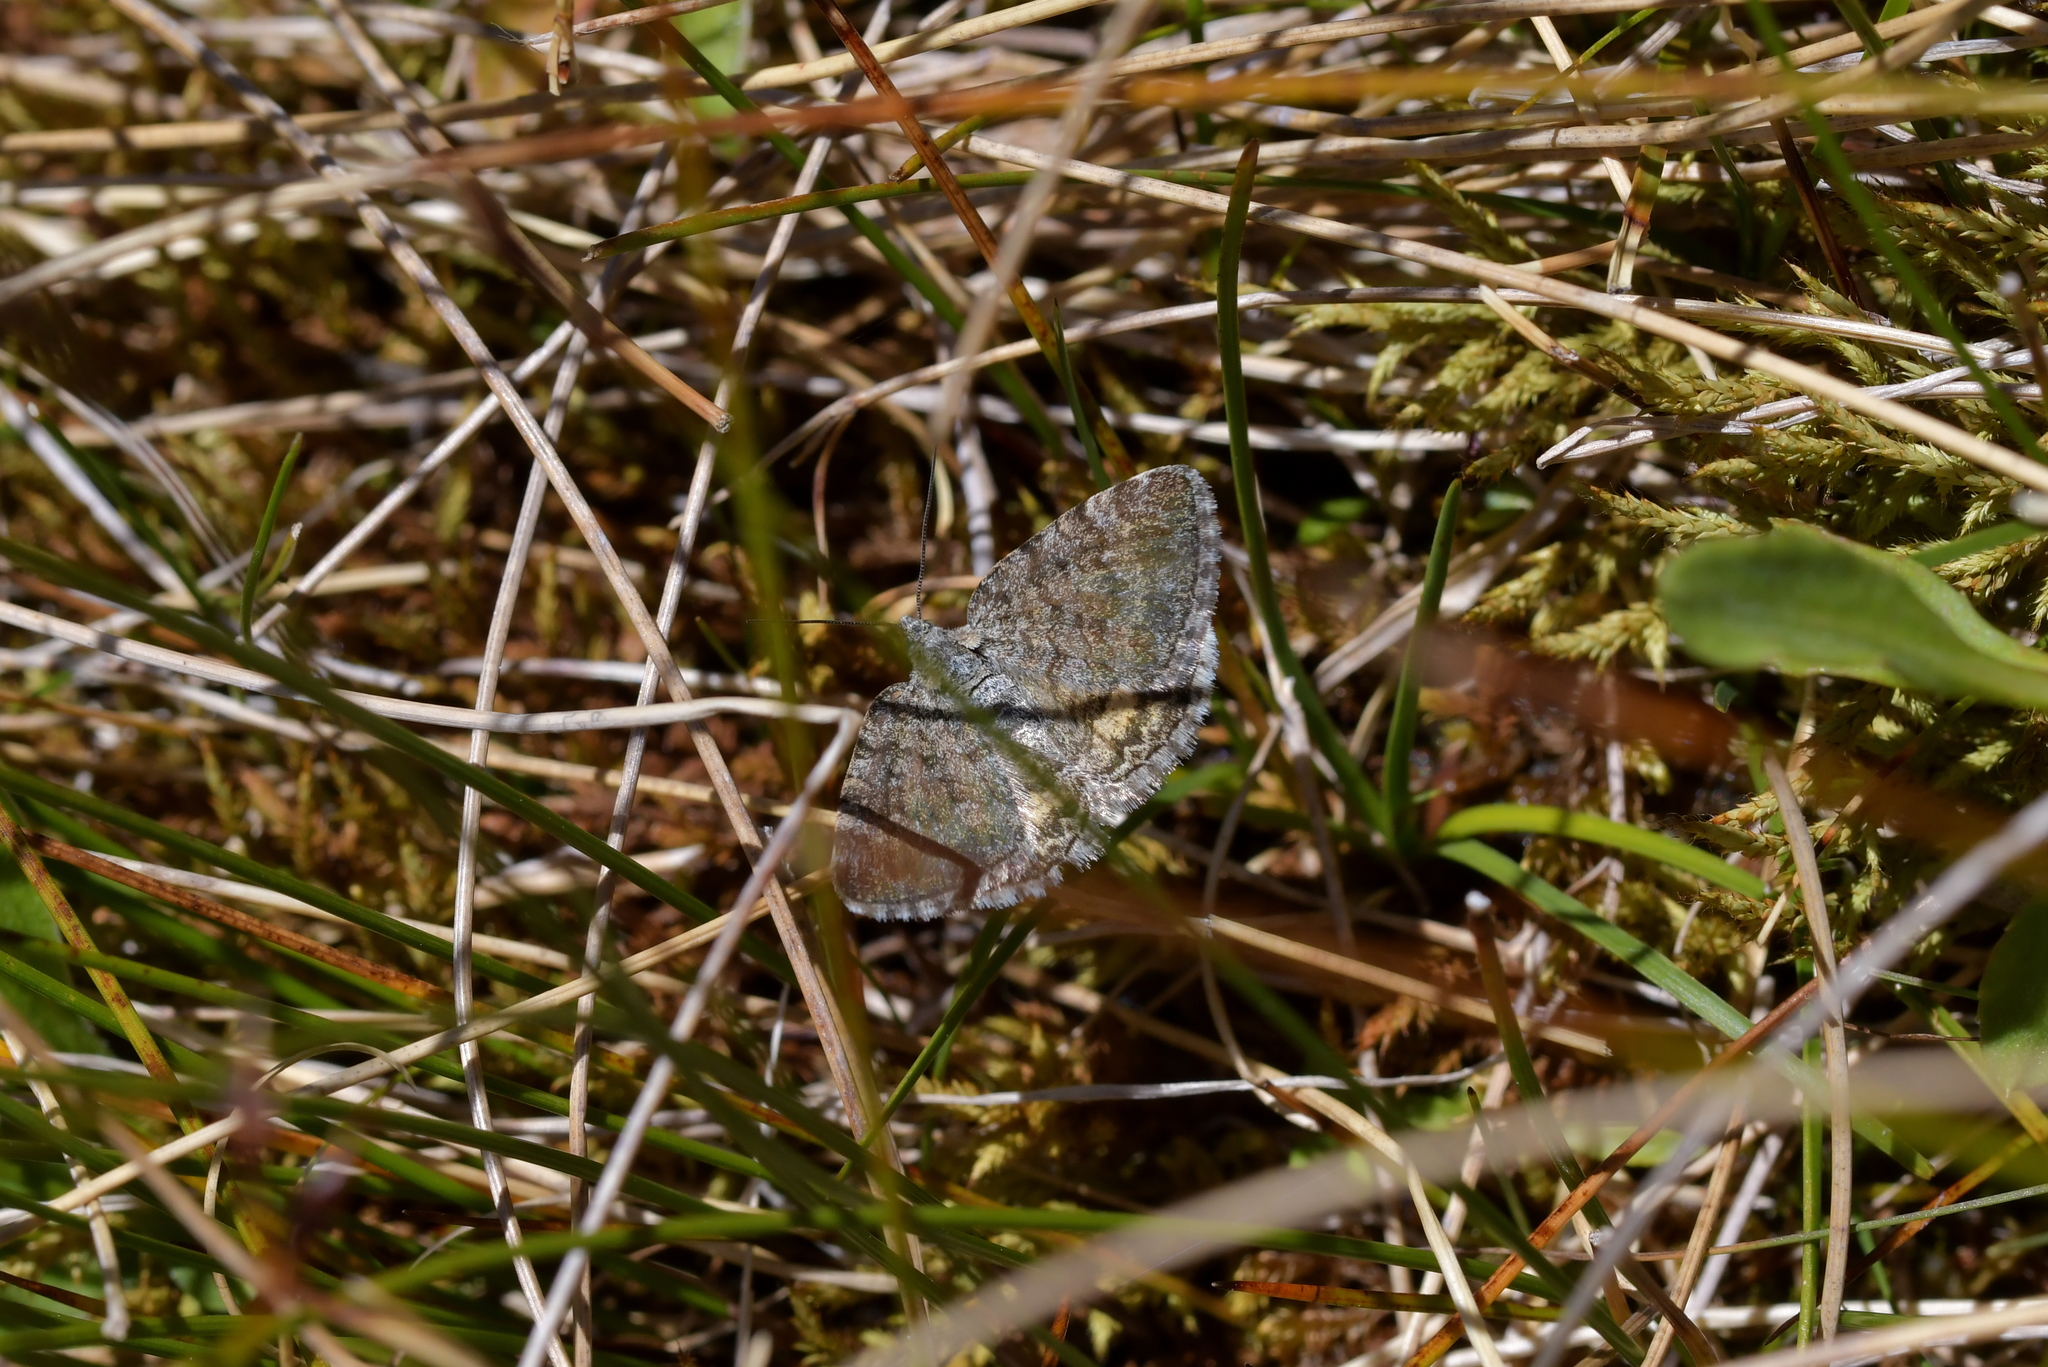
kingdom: Animalia
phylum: Arthropoda
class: Insecta
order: Lepidoptera
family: Geometridae
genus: Dasyuris
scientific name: Dasyuris anceps
